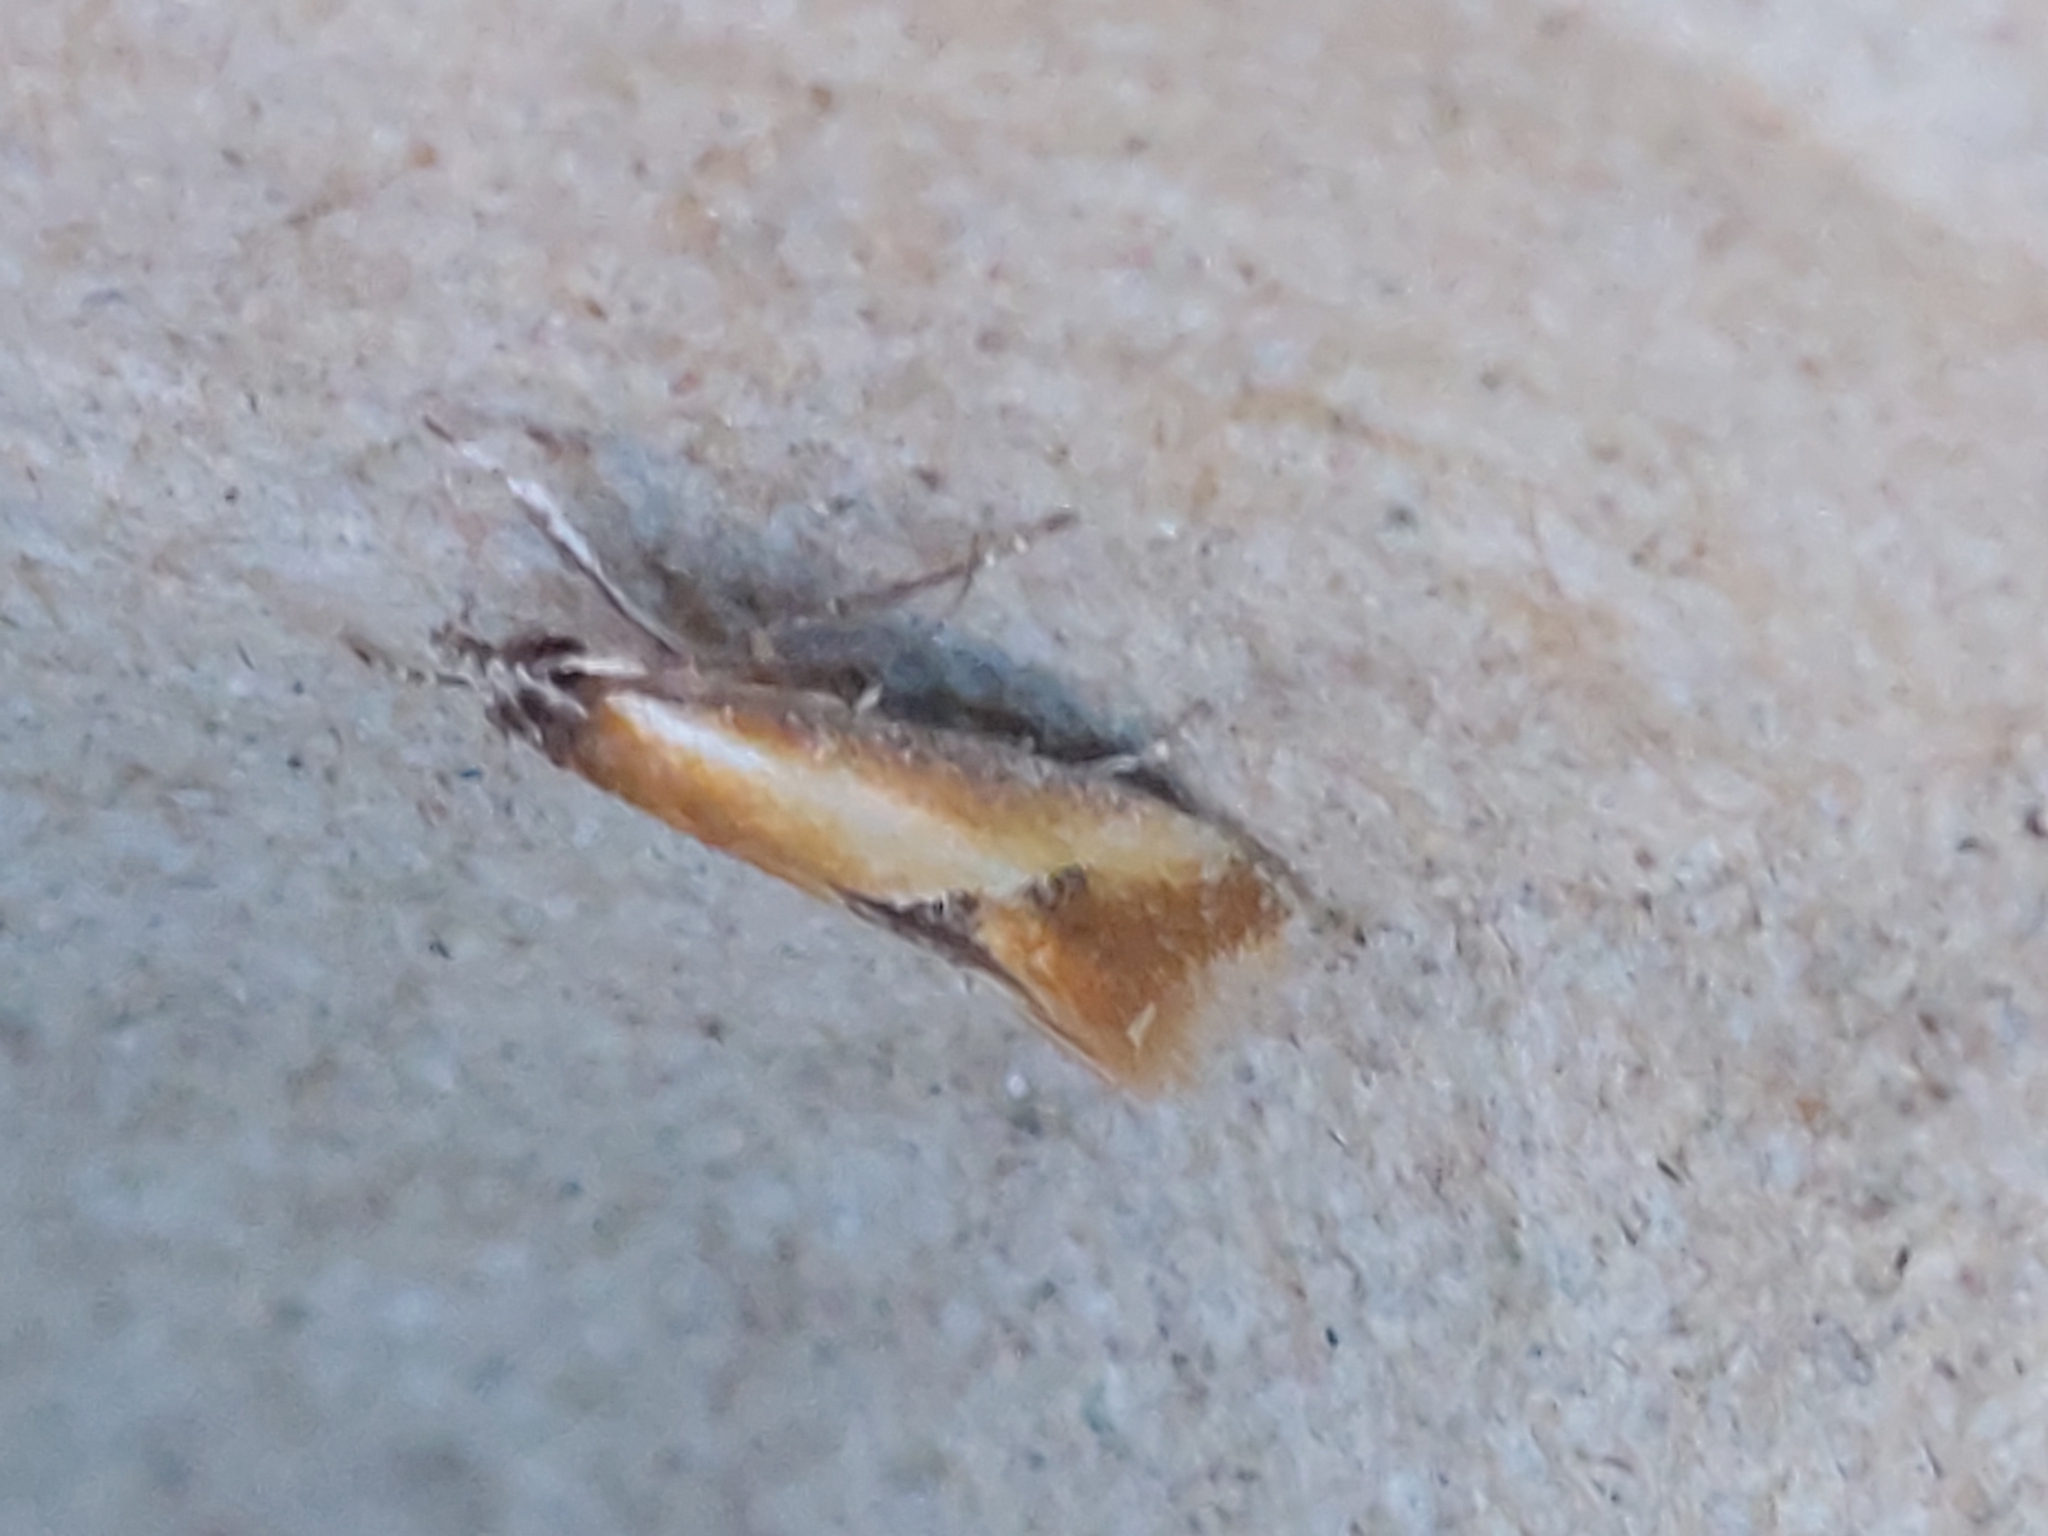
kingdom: Animalia
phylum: Arthropoda
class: Insecta
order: Lepidoptera
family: Oecophoridae
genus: Batia
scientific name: Batia lunaris
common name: Moth
